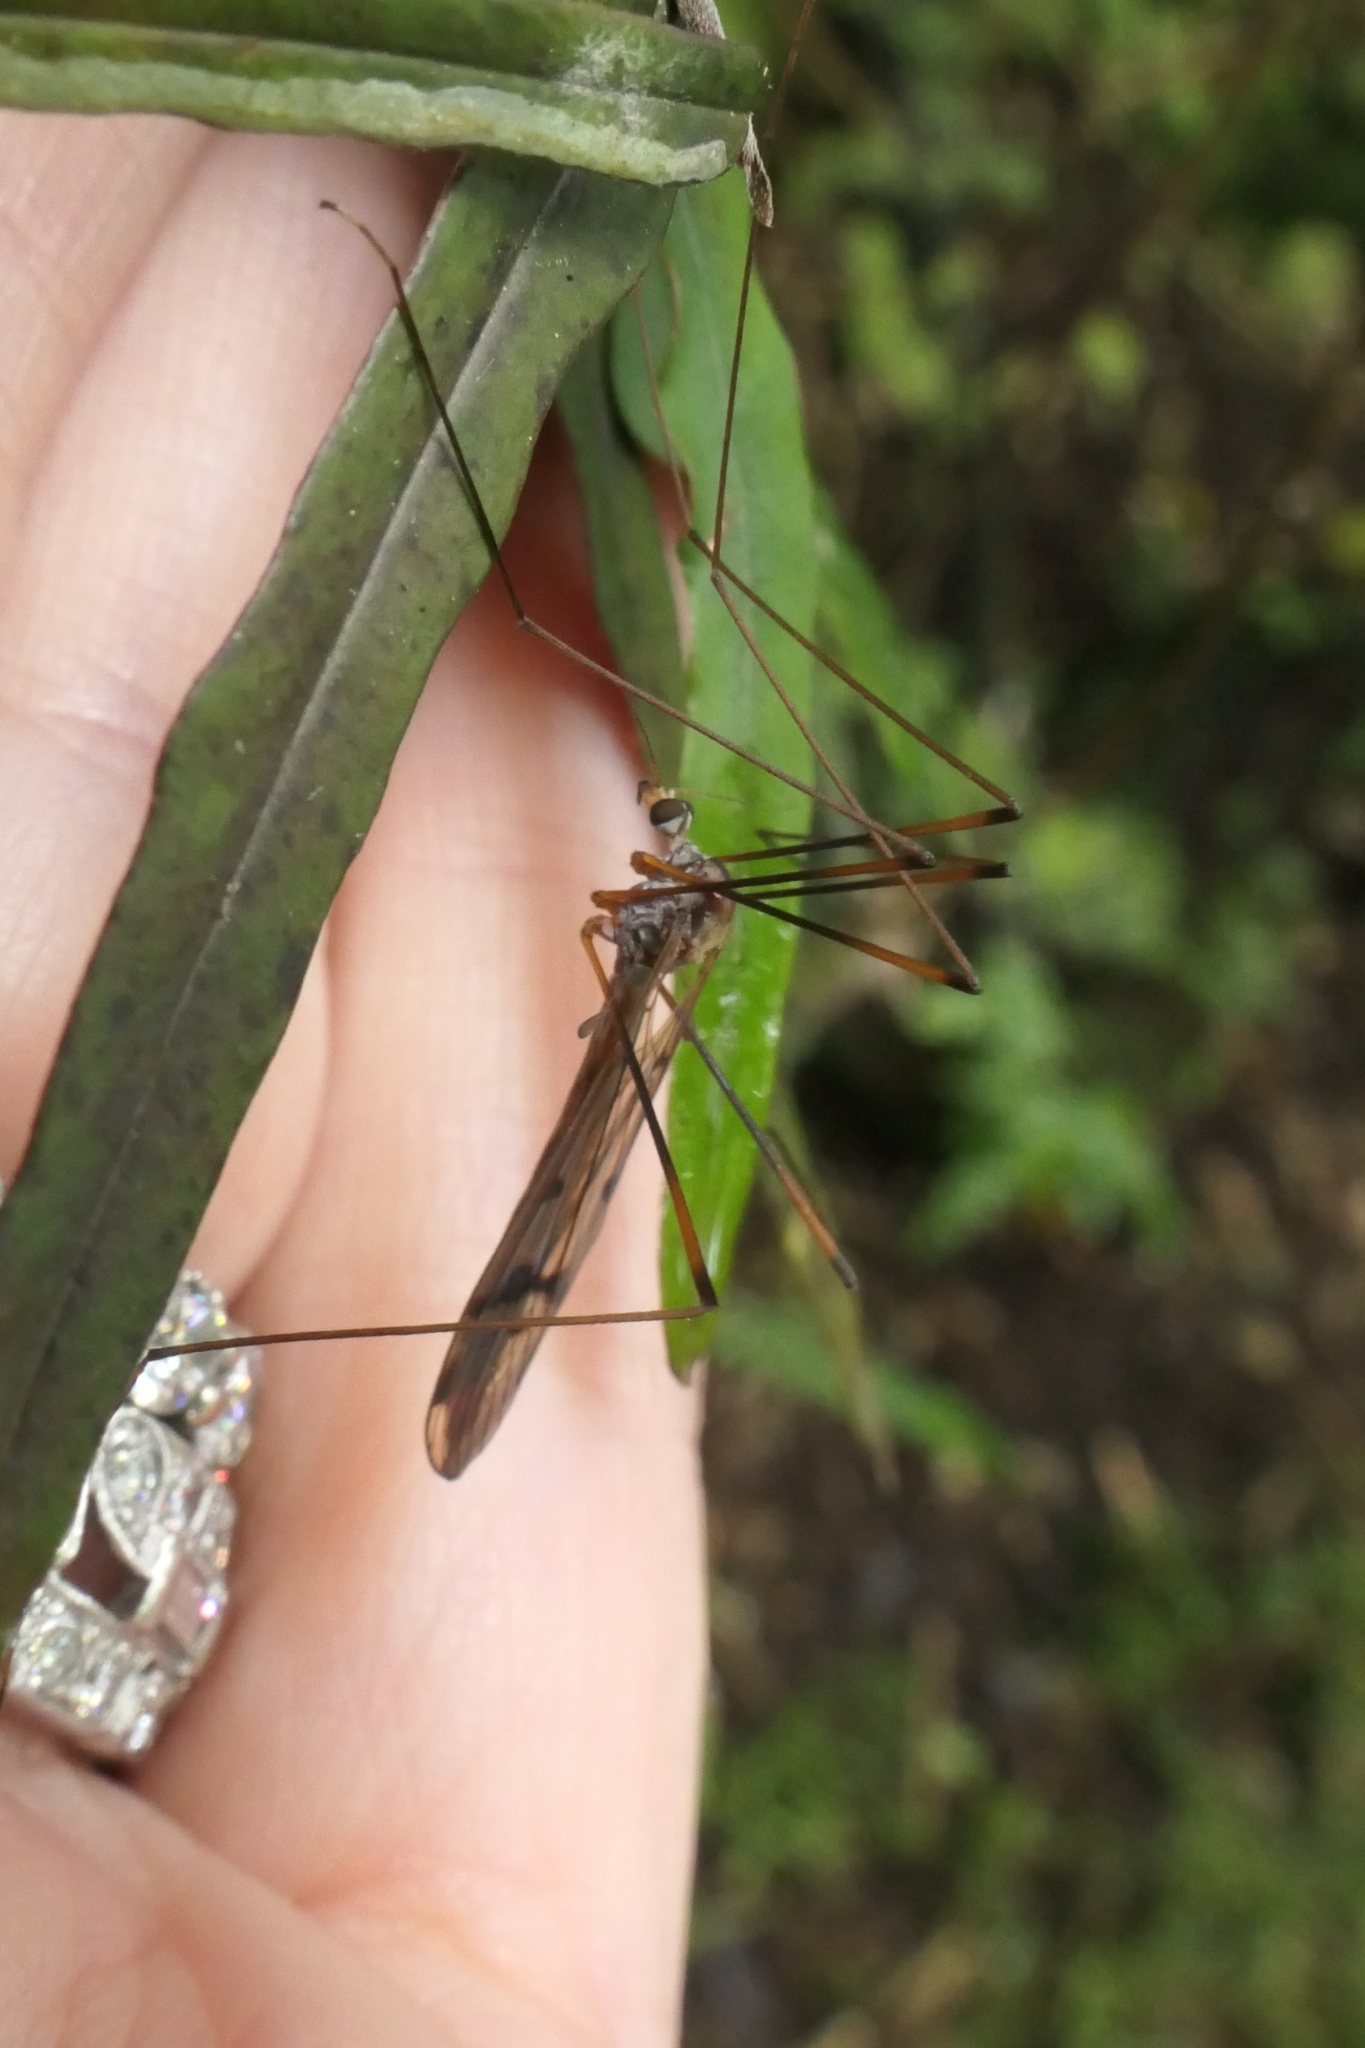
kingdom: Animalia
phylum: Arthropoda
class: Insecta
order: Diptera
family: Limoniidae
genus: Limnophilella
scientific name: Limnophilella serotina
